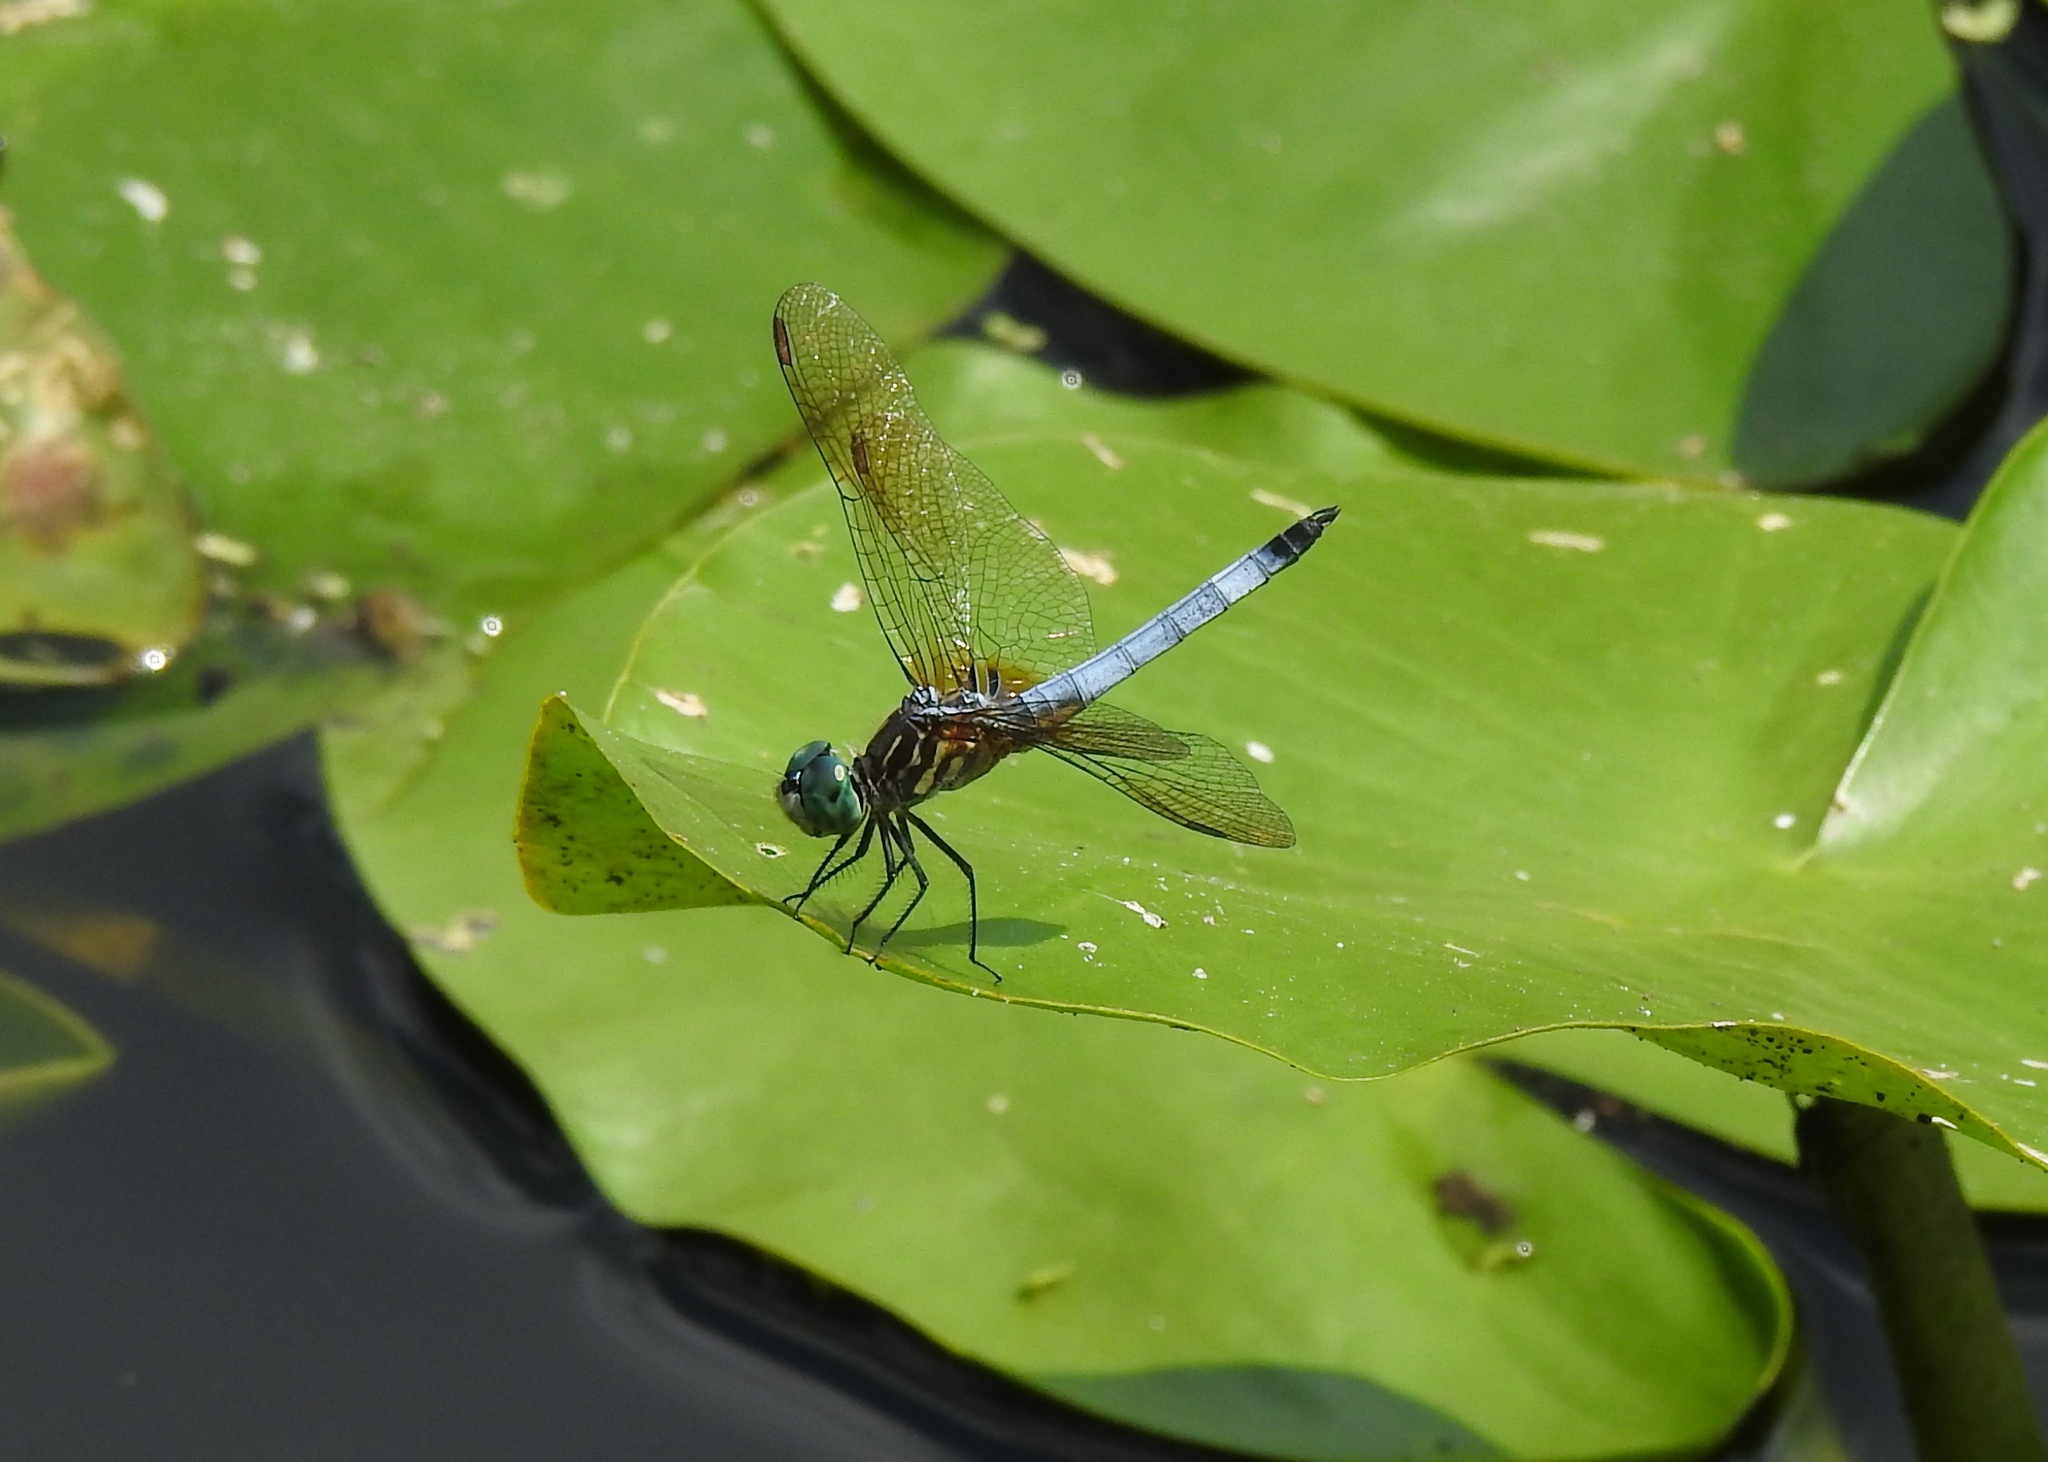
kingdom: Animalia
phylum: Arthropoda
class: Insecta
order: Odonata
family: Libellulidae
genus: Pachydiplax
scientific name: Pachydiplax longipennis
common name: Blue dasher
